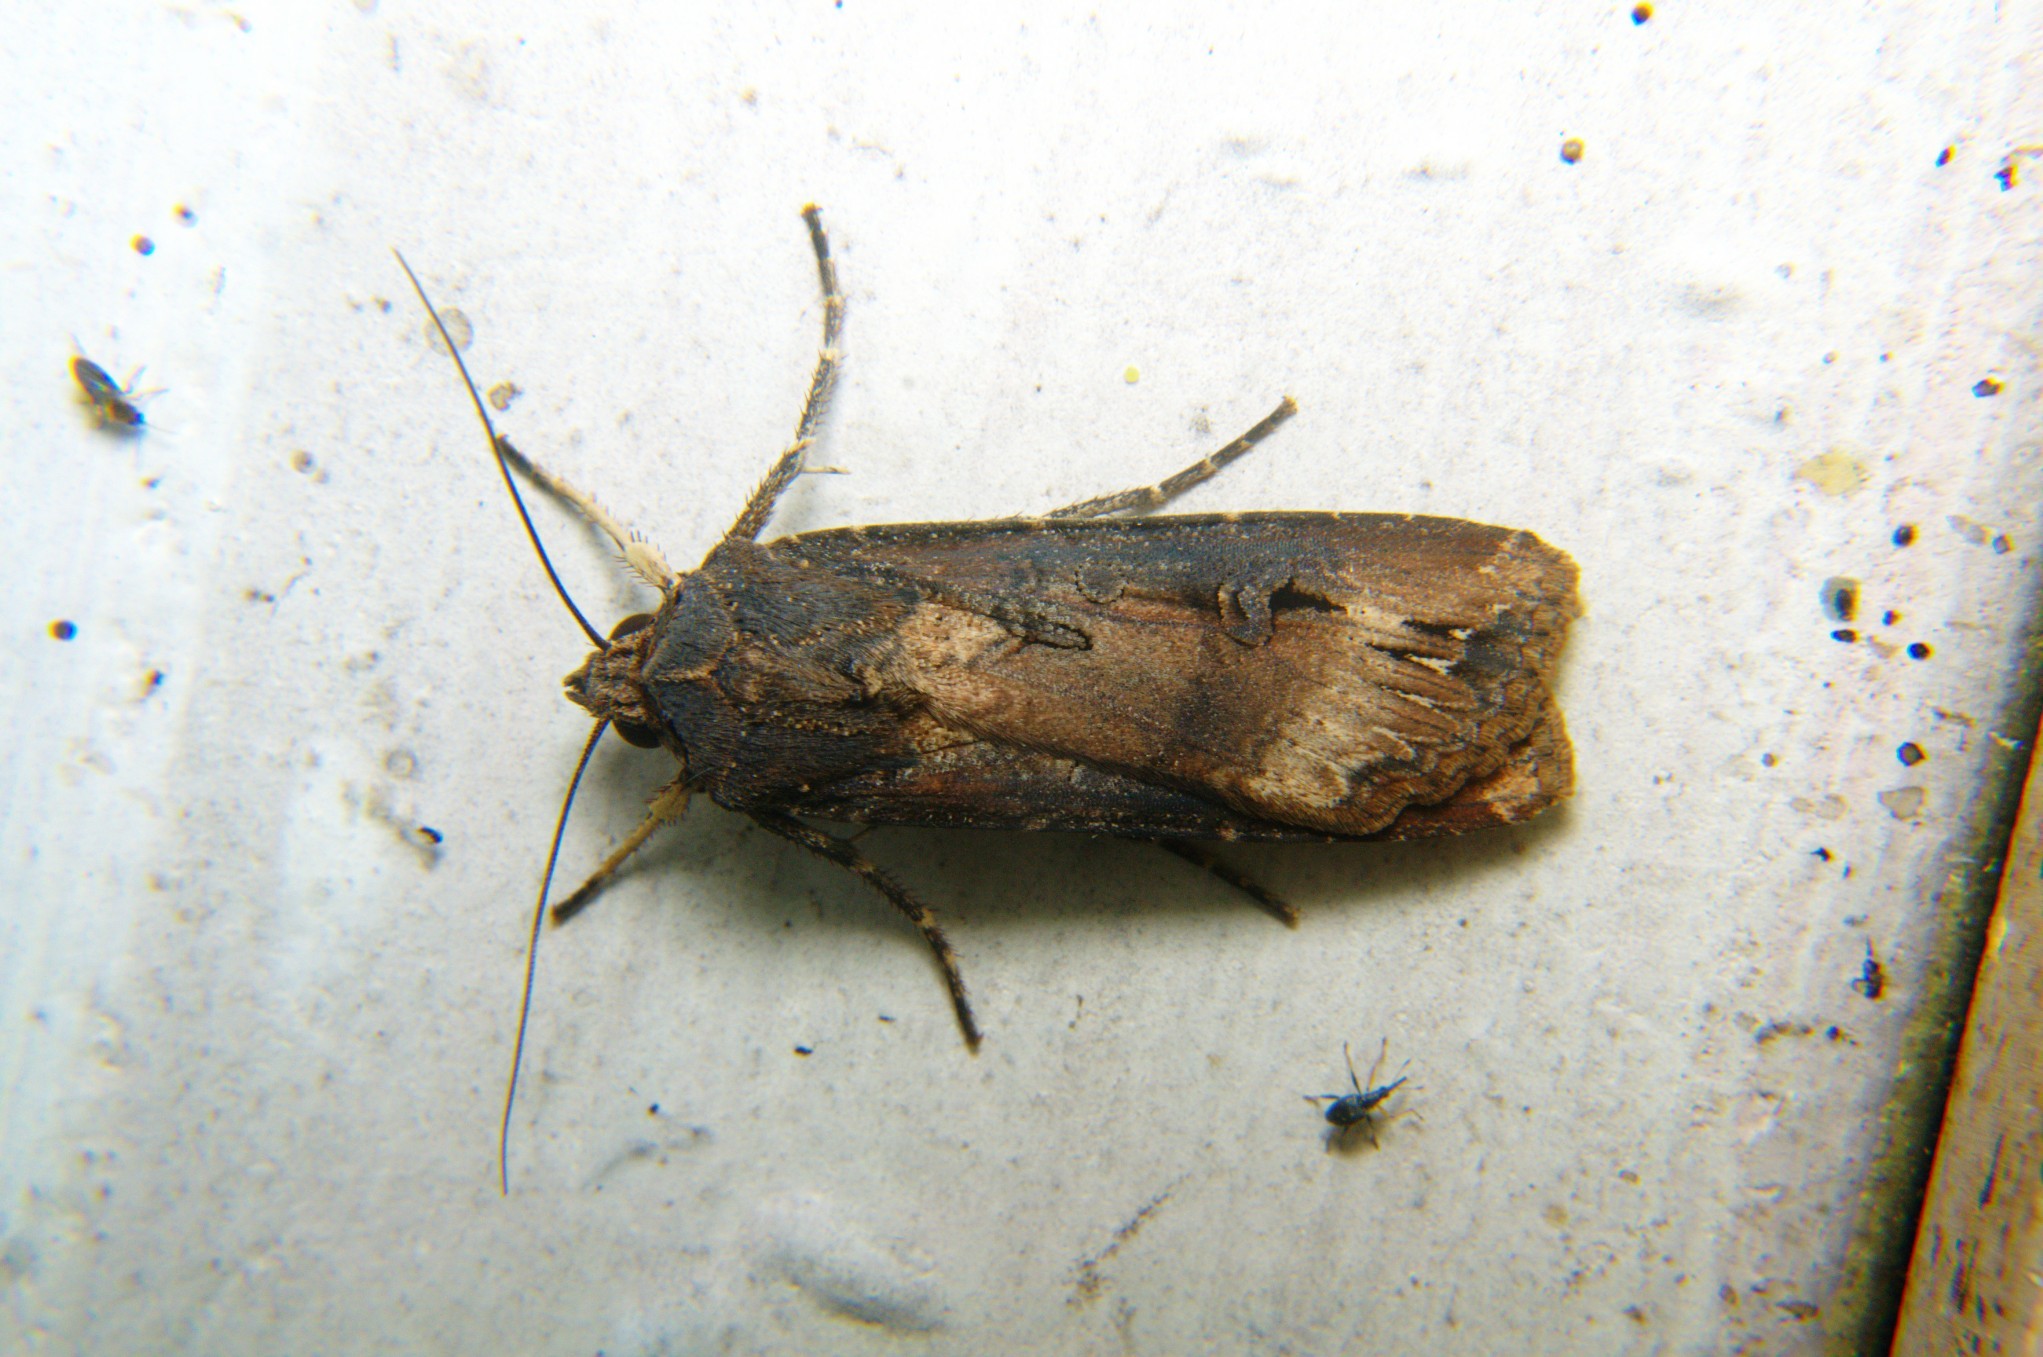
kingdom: Animalia
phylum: Arthropoda
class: Insecta
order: Lepidoptera
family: Noctuidae
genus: Agrotis
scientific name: Agrotis ipsilon
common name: Dark sword-grass
